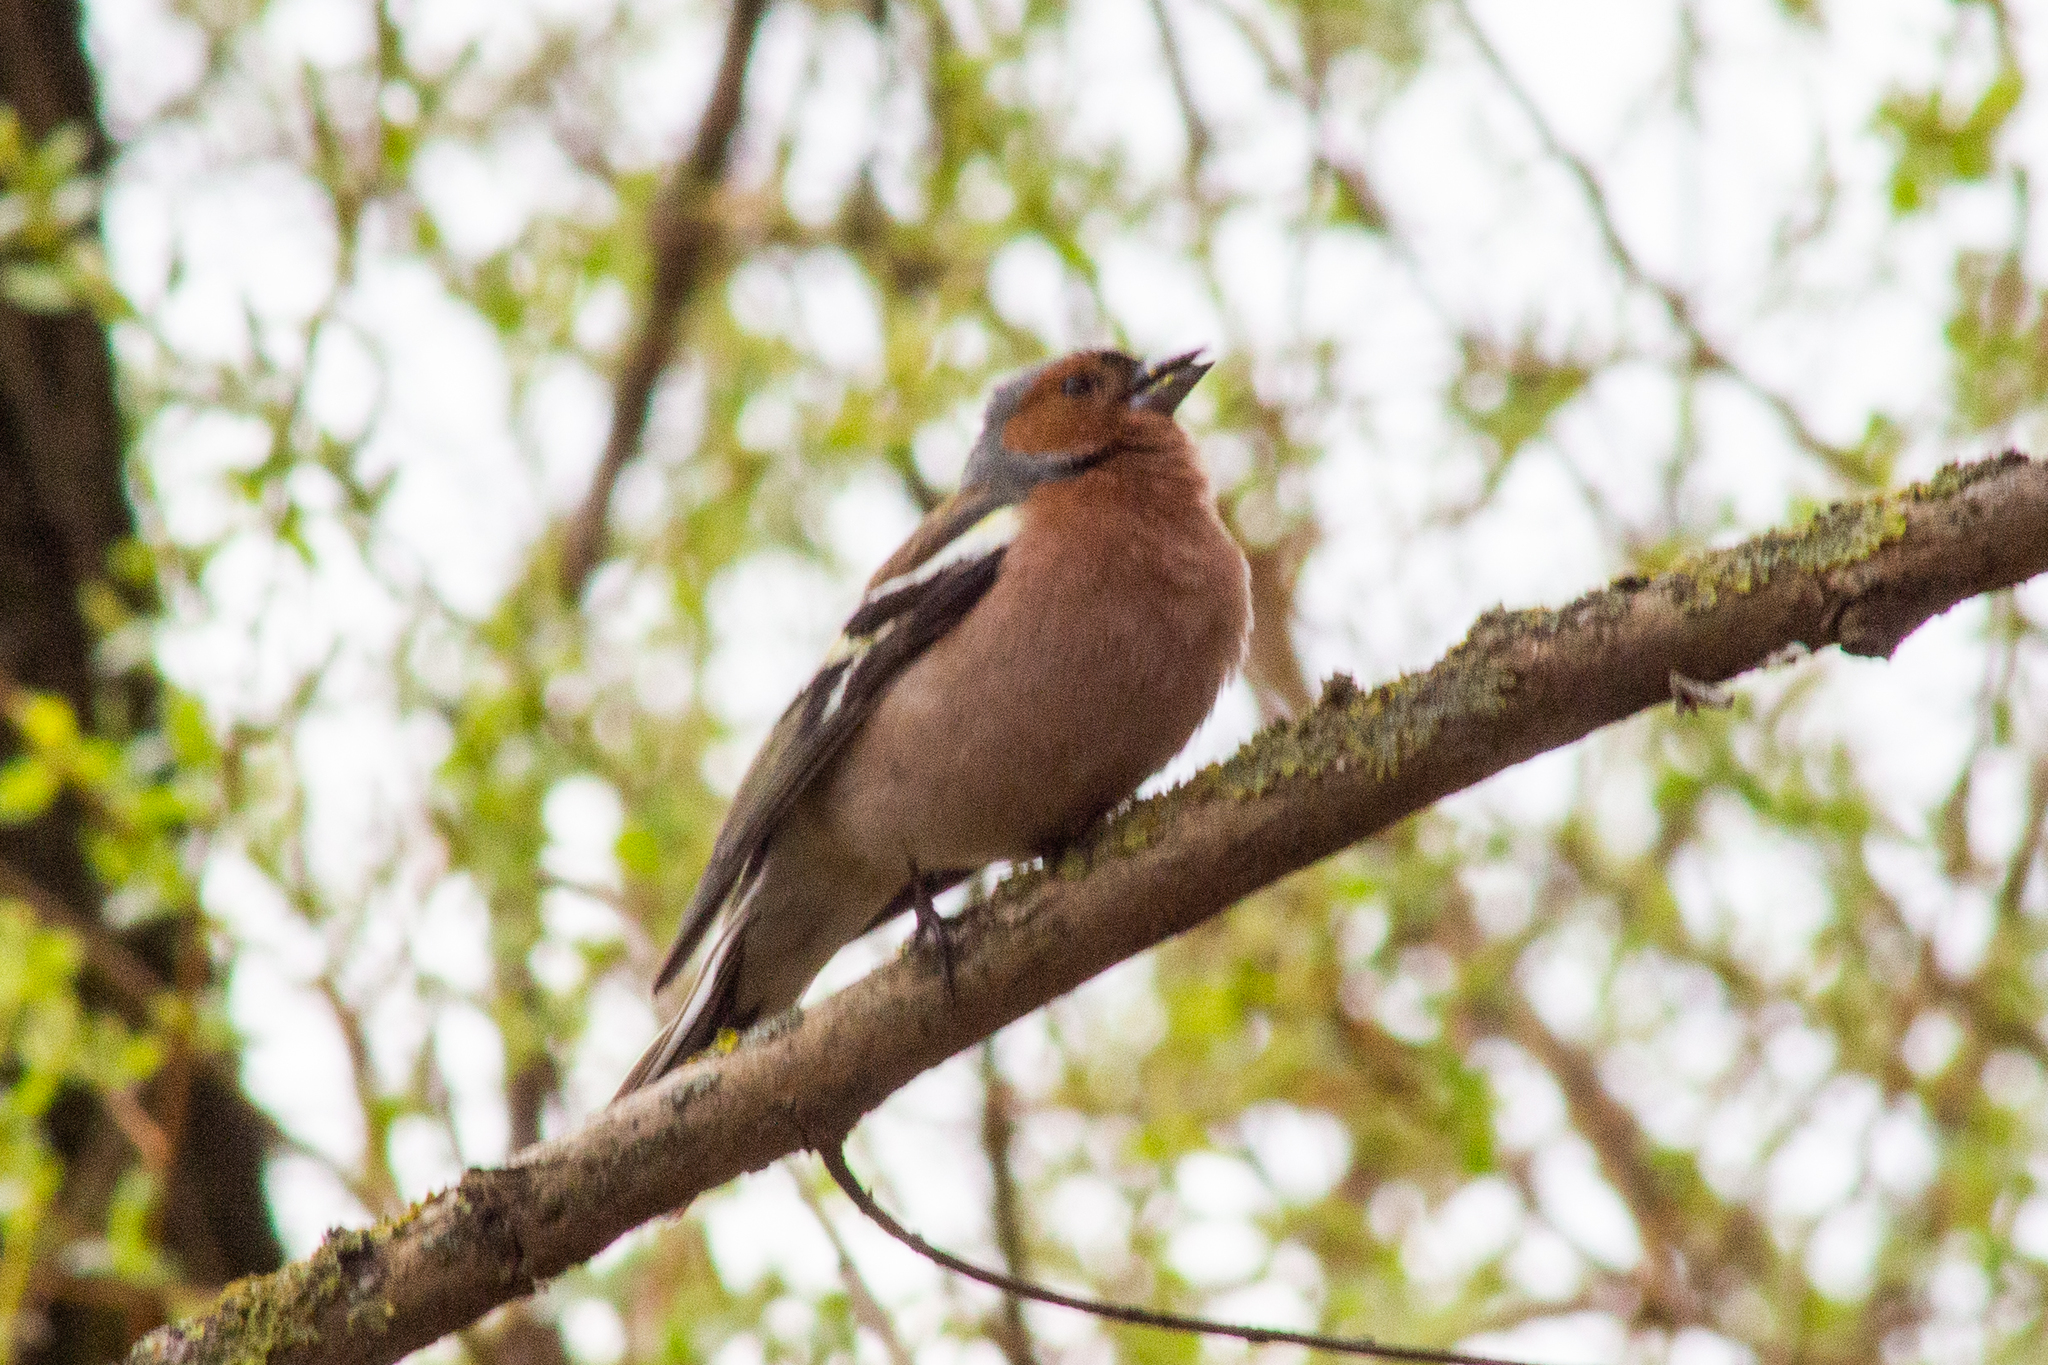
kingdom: Animalia
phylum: Chordata
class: Aves
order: Passeriformes
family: Fringillidae
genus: Fringilla
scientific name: Fringilla coelebs
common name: Common chaffinch
